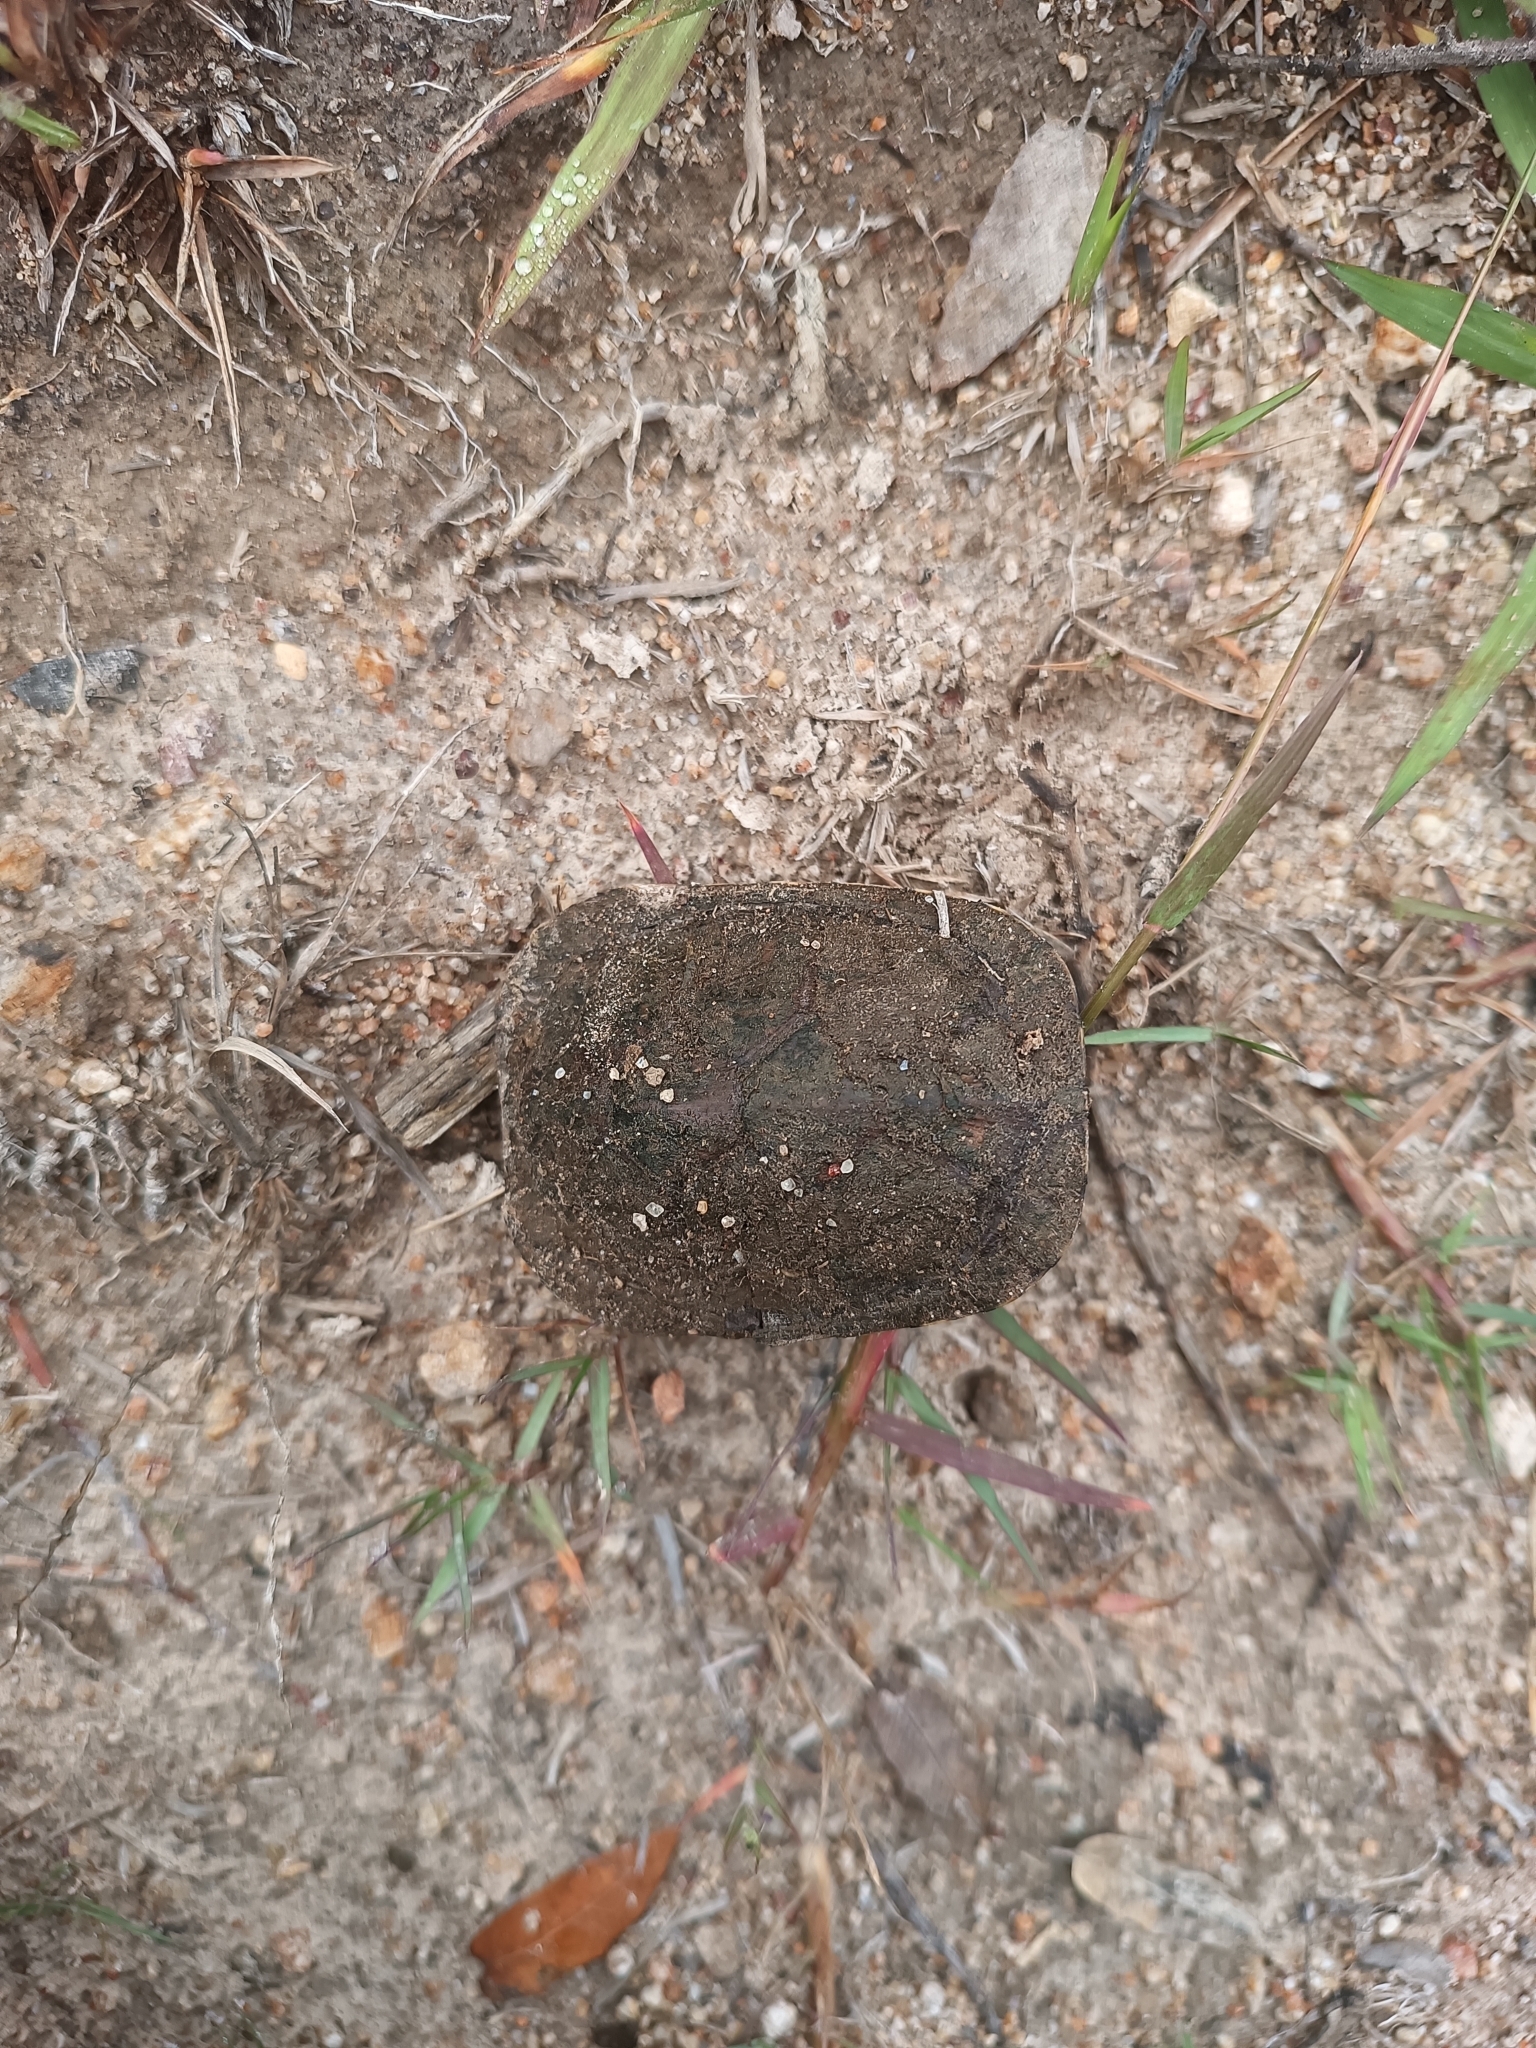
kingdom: Animalia
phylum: Chordata
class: Testudines
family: Kinosternidae
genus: Kinosternon
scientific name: Kinosternon integrum
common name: Mexican mud turtle
